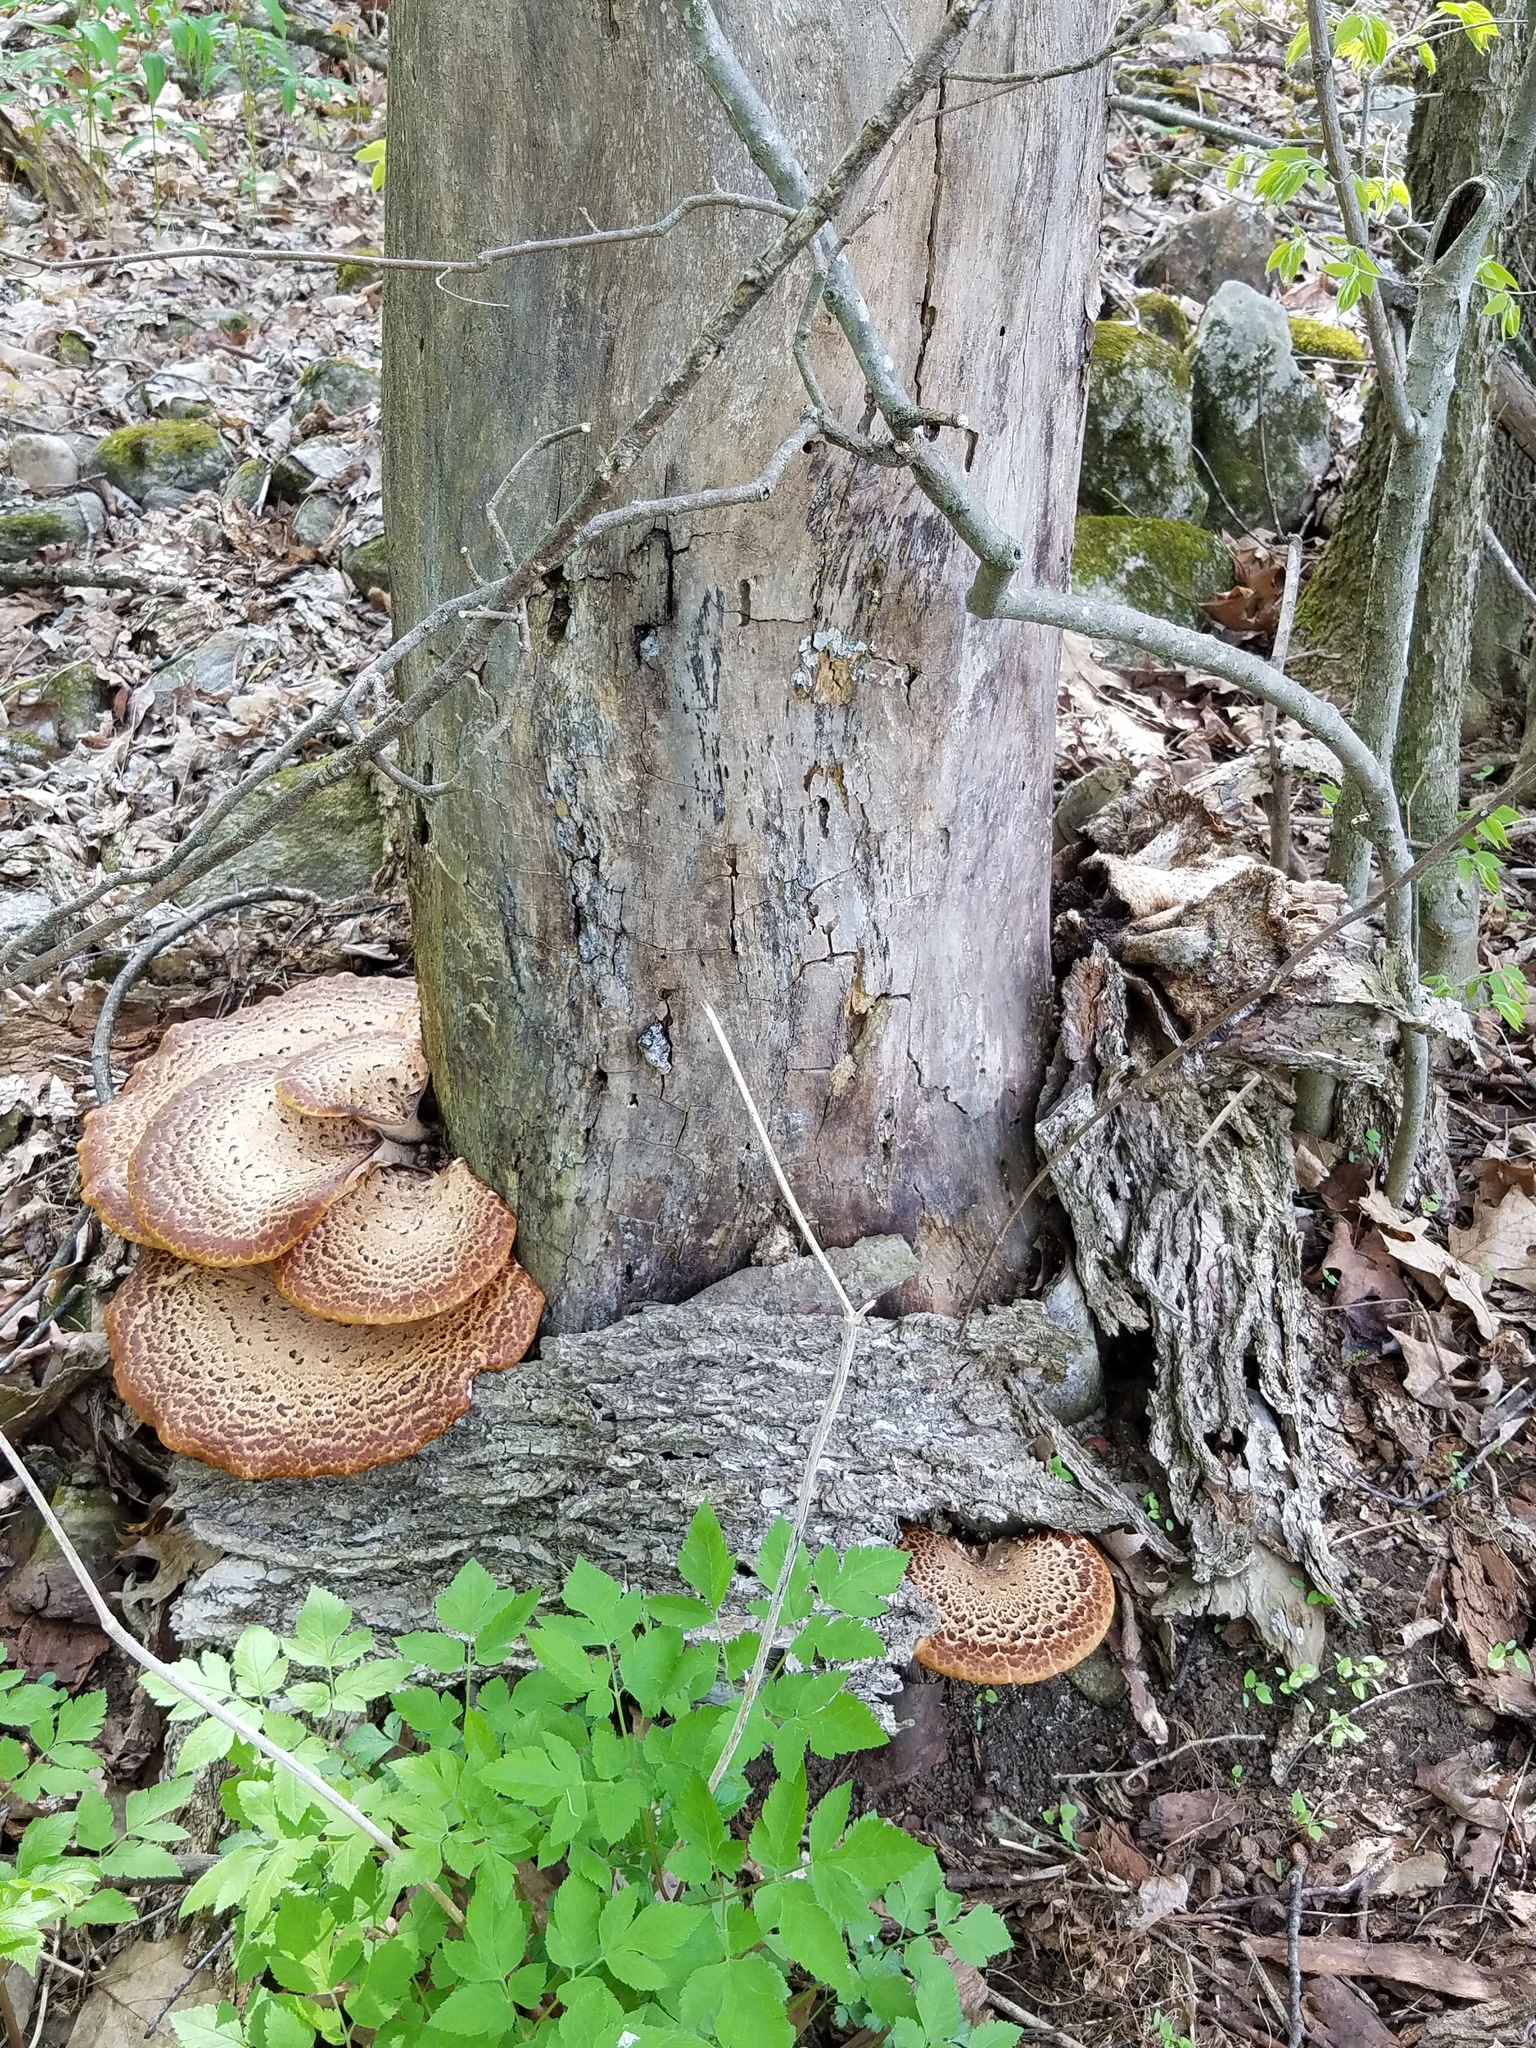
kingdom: Fungi
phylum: Basidiomycota
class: Agaricomycetes
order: Polyporales
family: Polyporaceae
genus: Cerioporus
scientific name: Cerioporus squamosus
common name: Dryad's saddle
